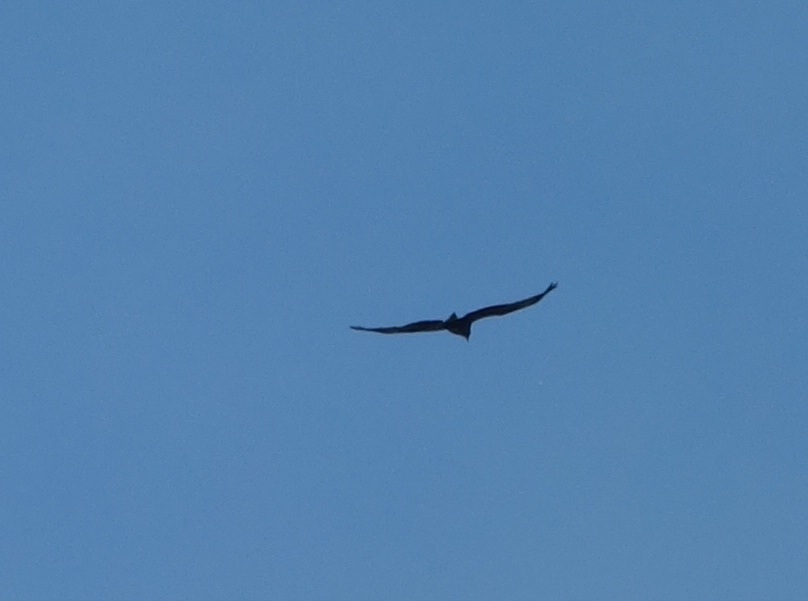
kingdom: Animalia
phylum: Chordata
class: Aves
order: Accipitriformes
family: Accipitridae
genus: Milvus
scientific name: Milvus migrans
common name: Black kite
